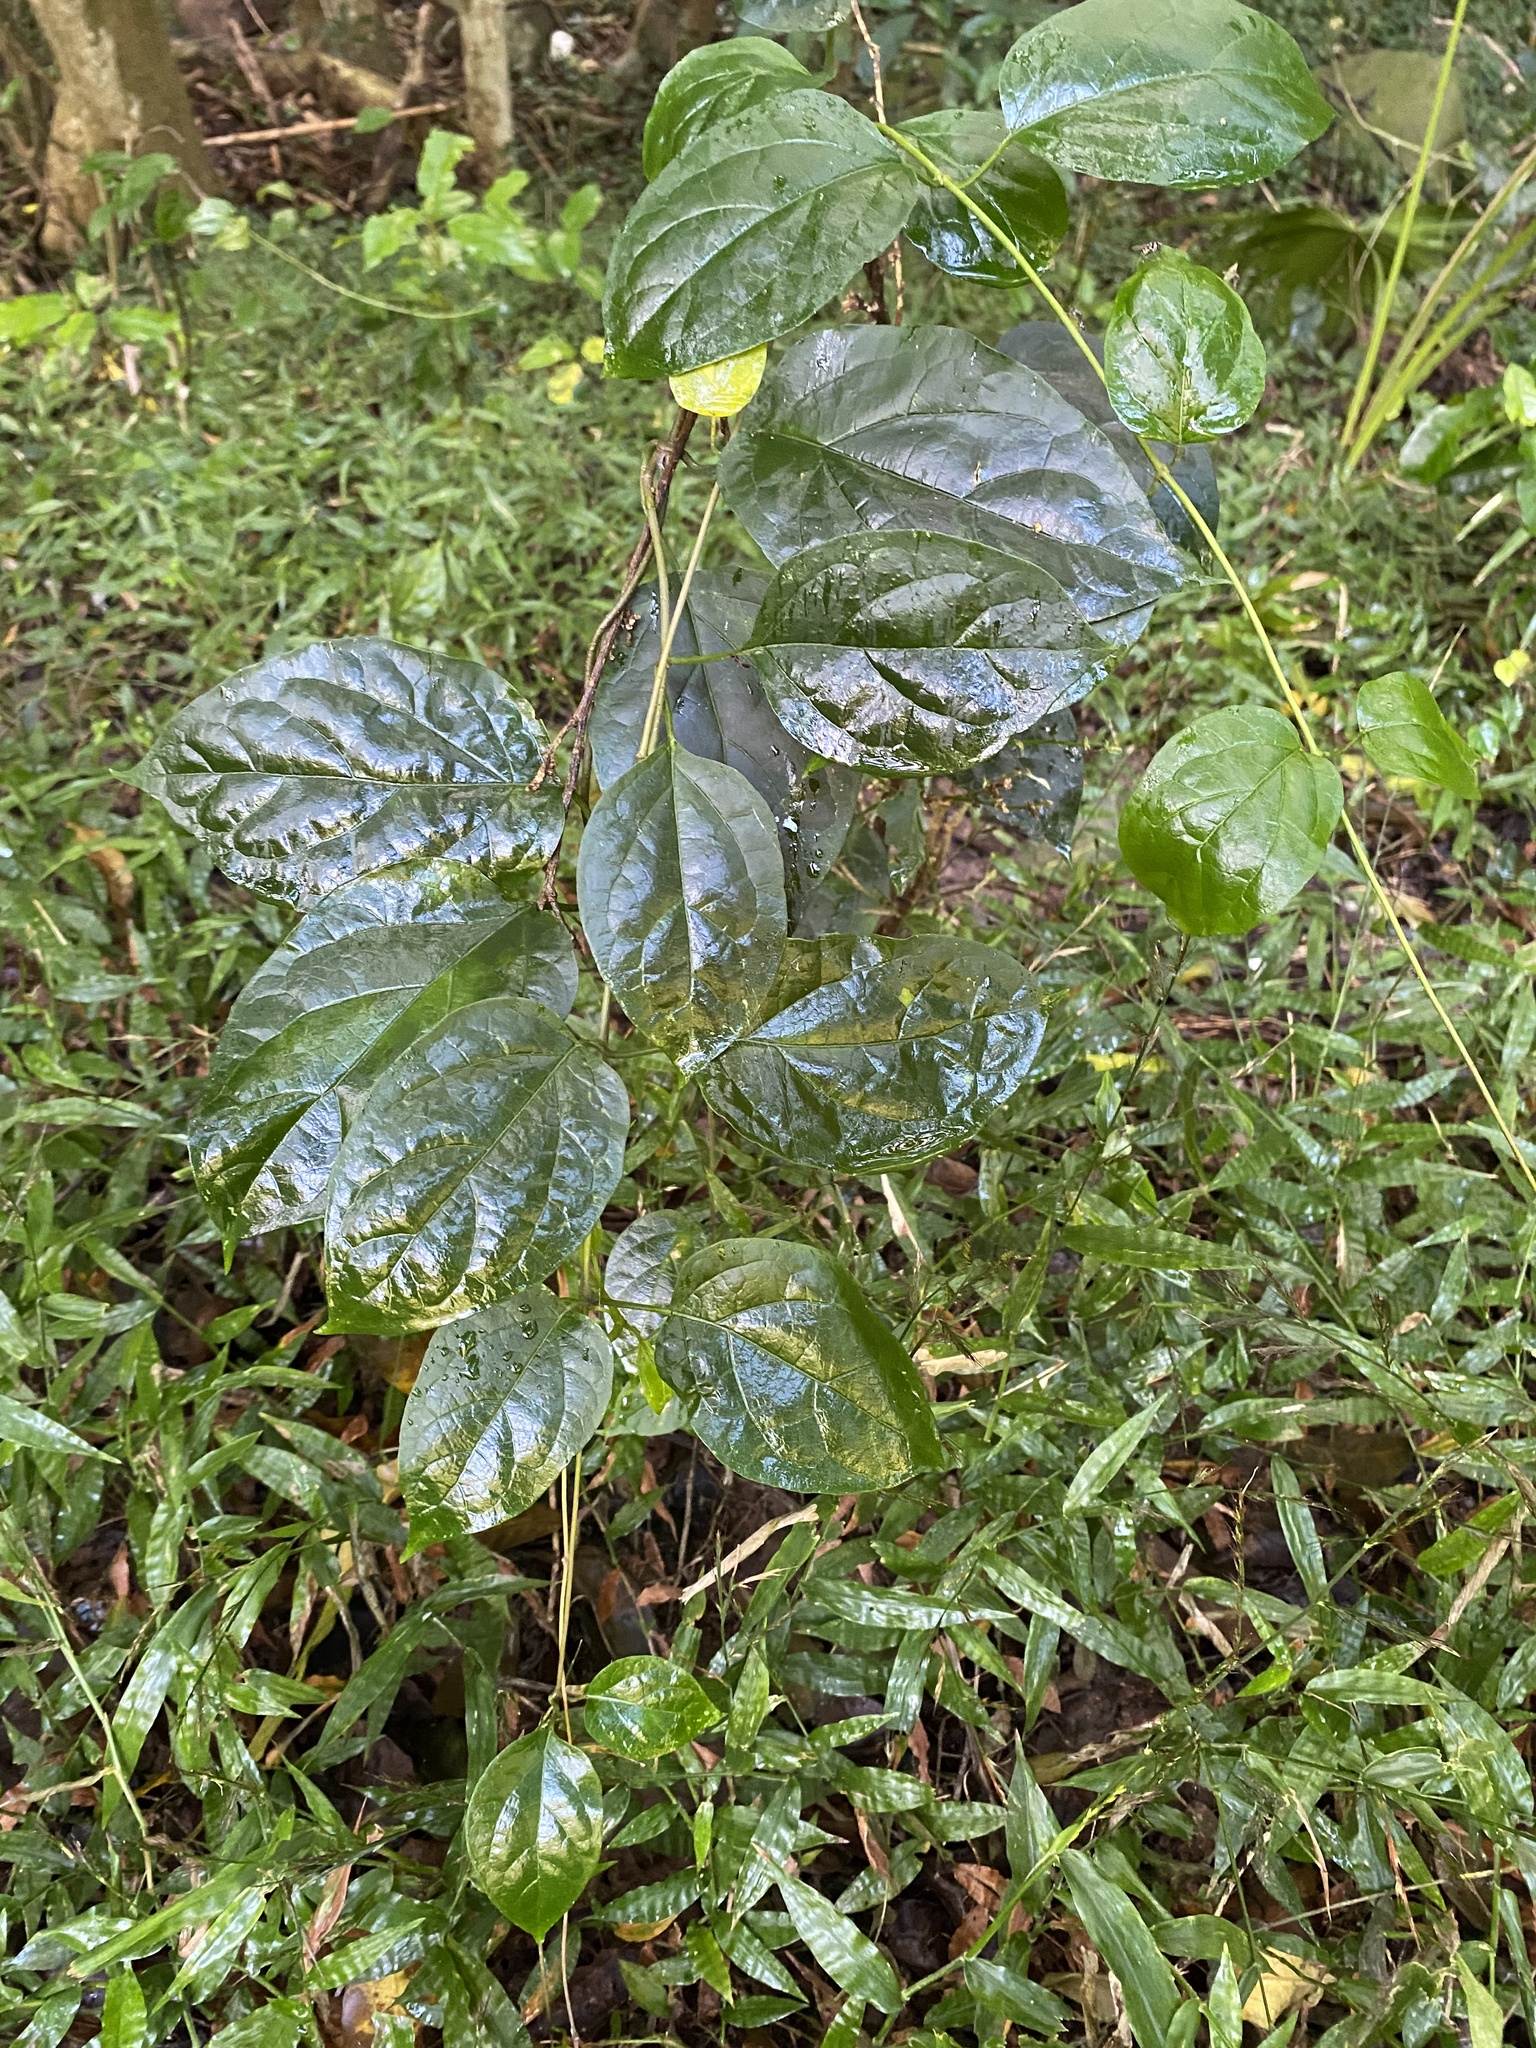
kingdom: Plantae
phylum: Tracheophyta
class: Magnoliopsida
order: Malpighiales
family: Passifloraceae
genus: Passiflora
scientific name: Passiflora edulis
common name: Purple granadilla
